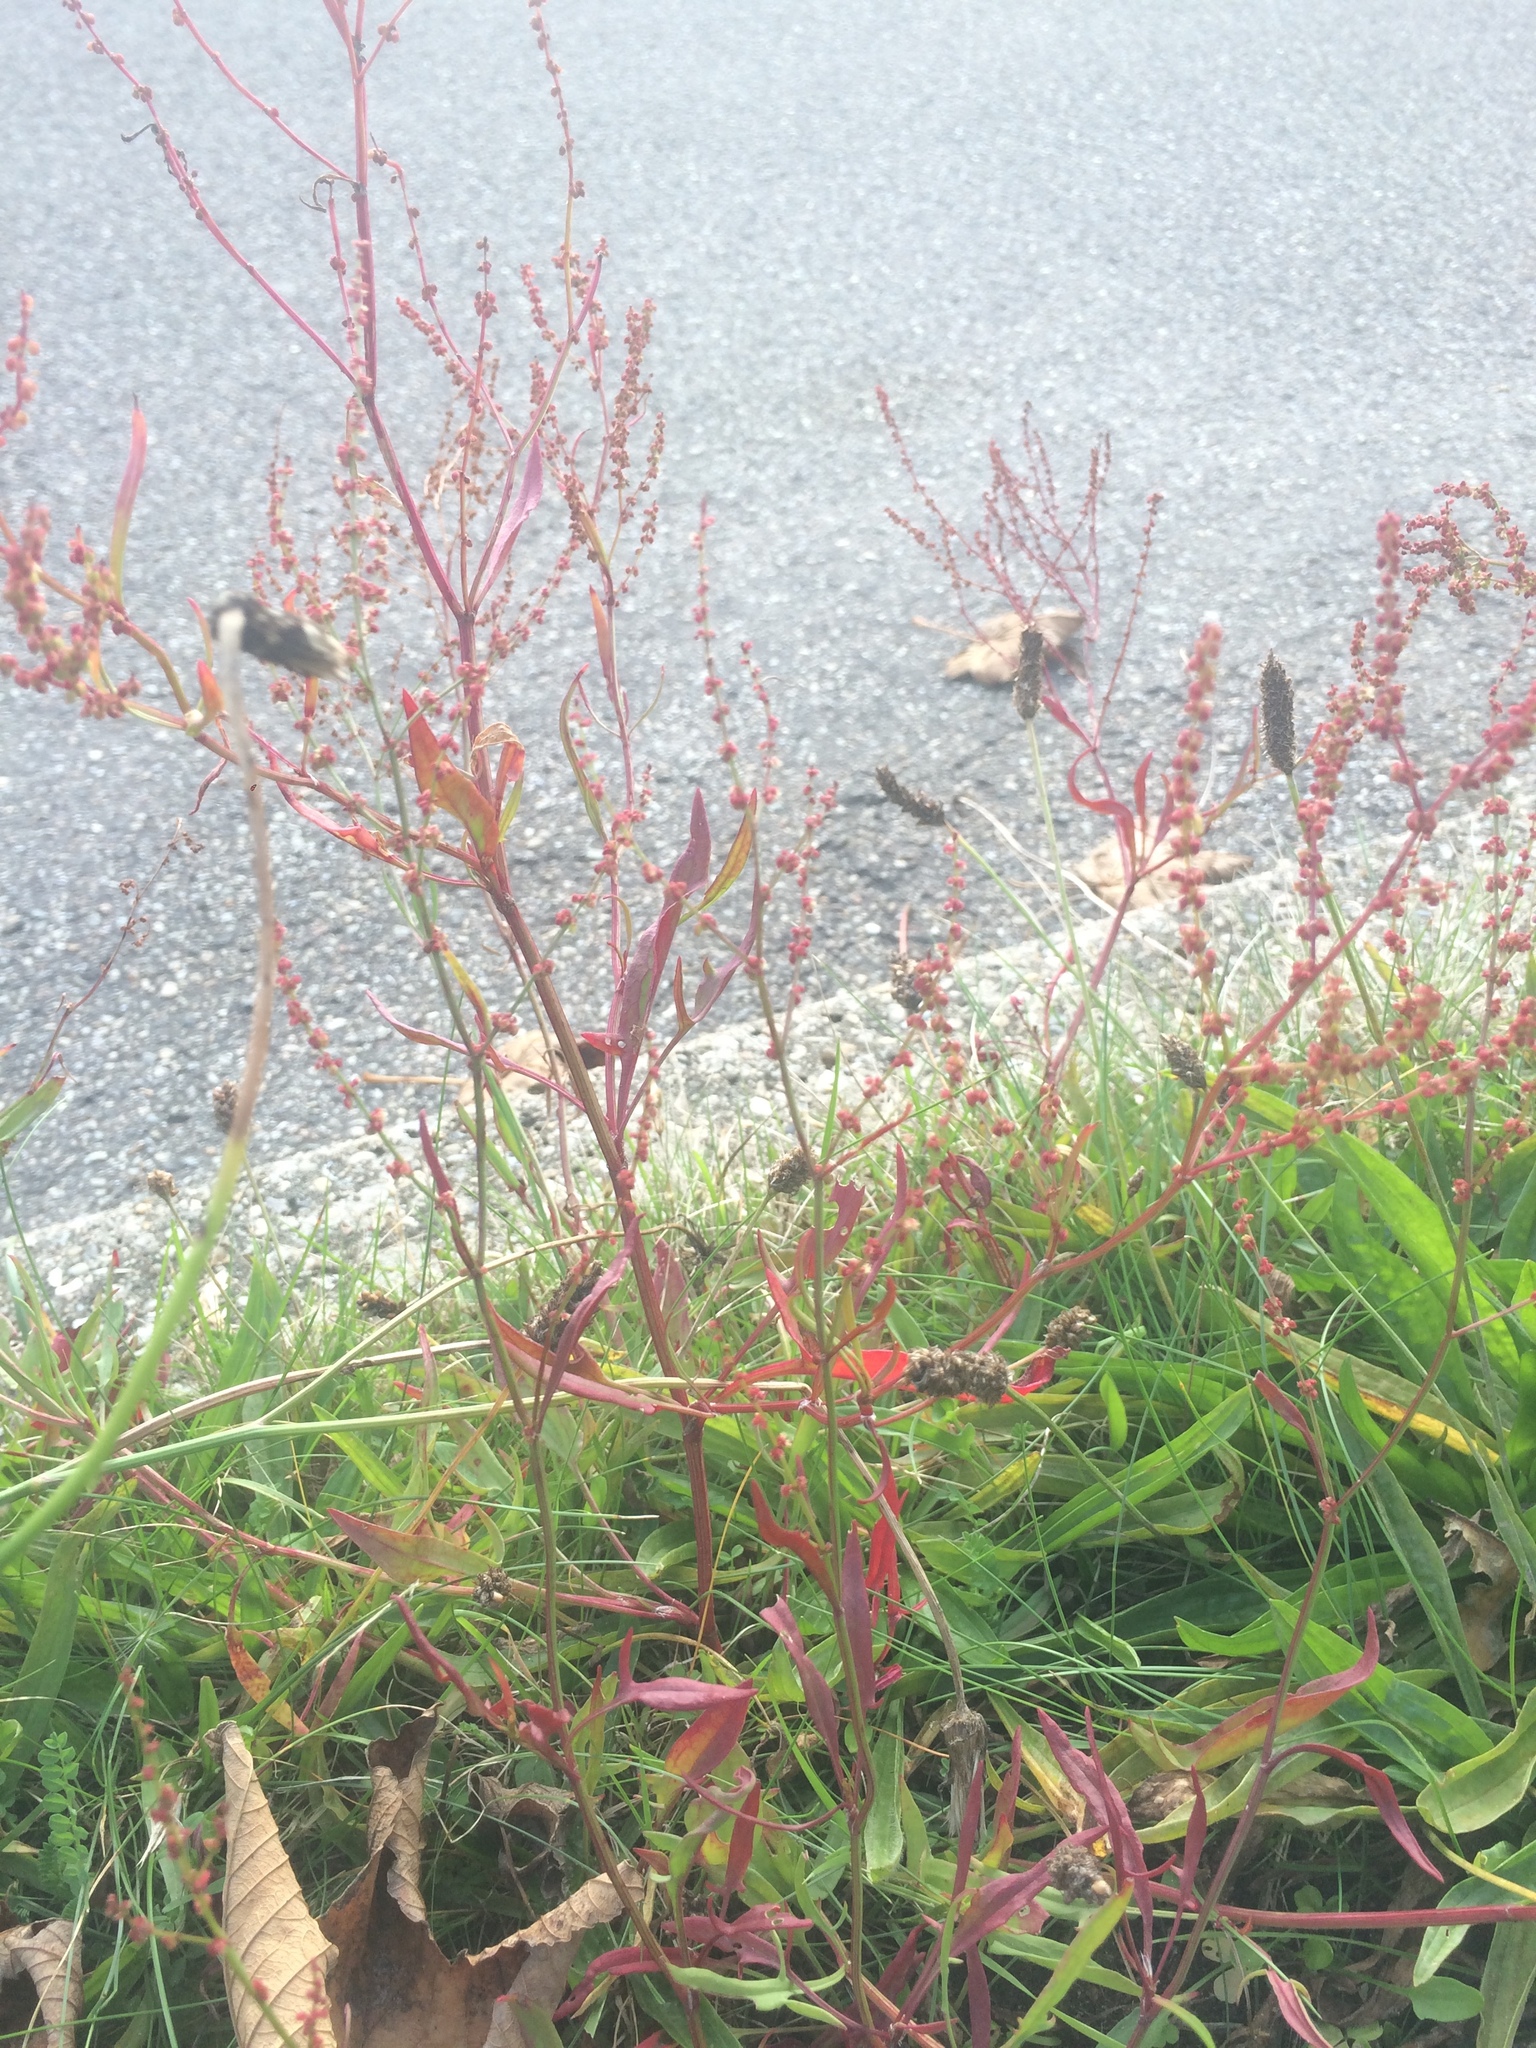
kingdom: Plantae
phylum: Tracheophyta
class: Magnoliopsida
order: Caryophyllales
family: Polygonaceae
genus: Rumex
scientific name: Rumex acetosella
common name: Common sheep sorrel
